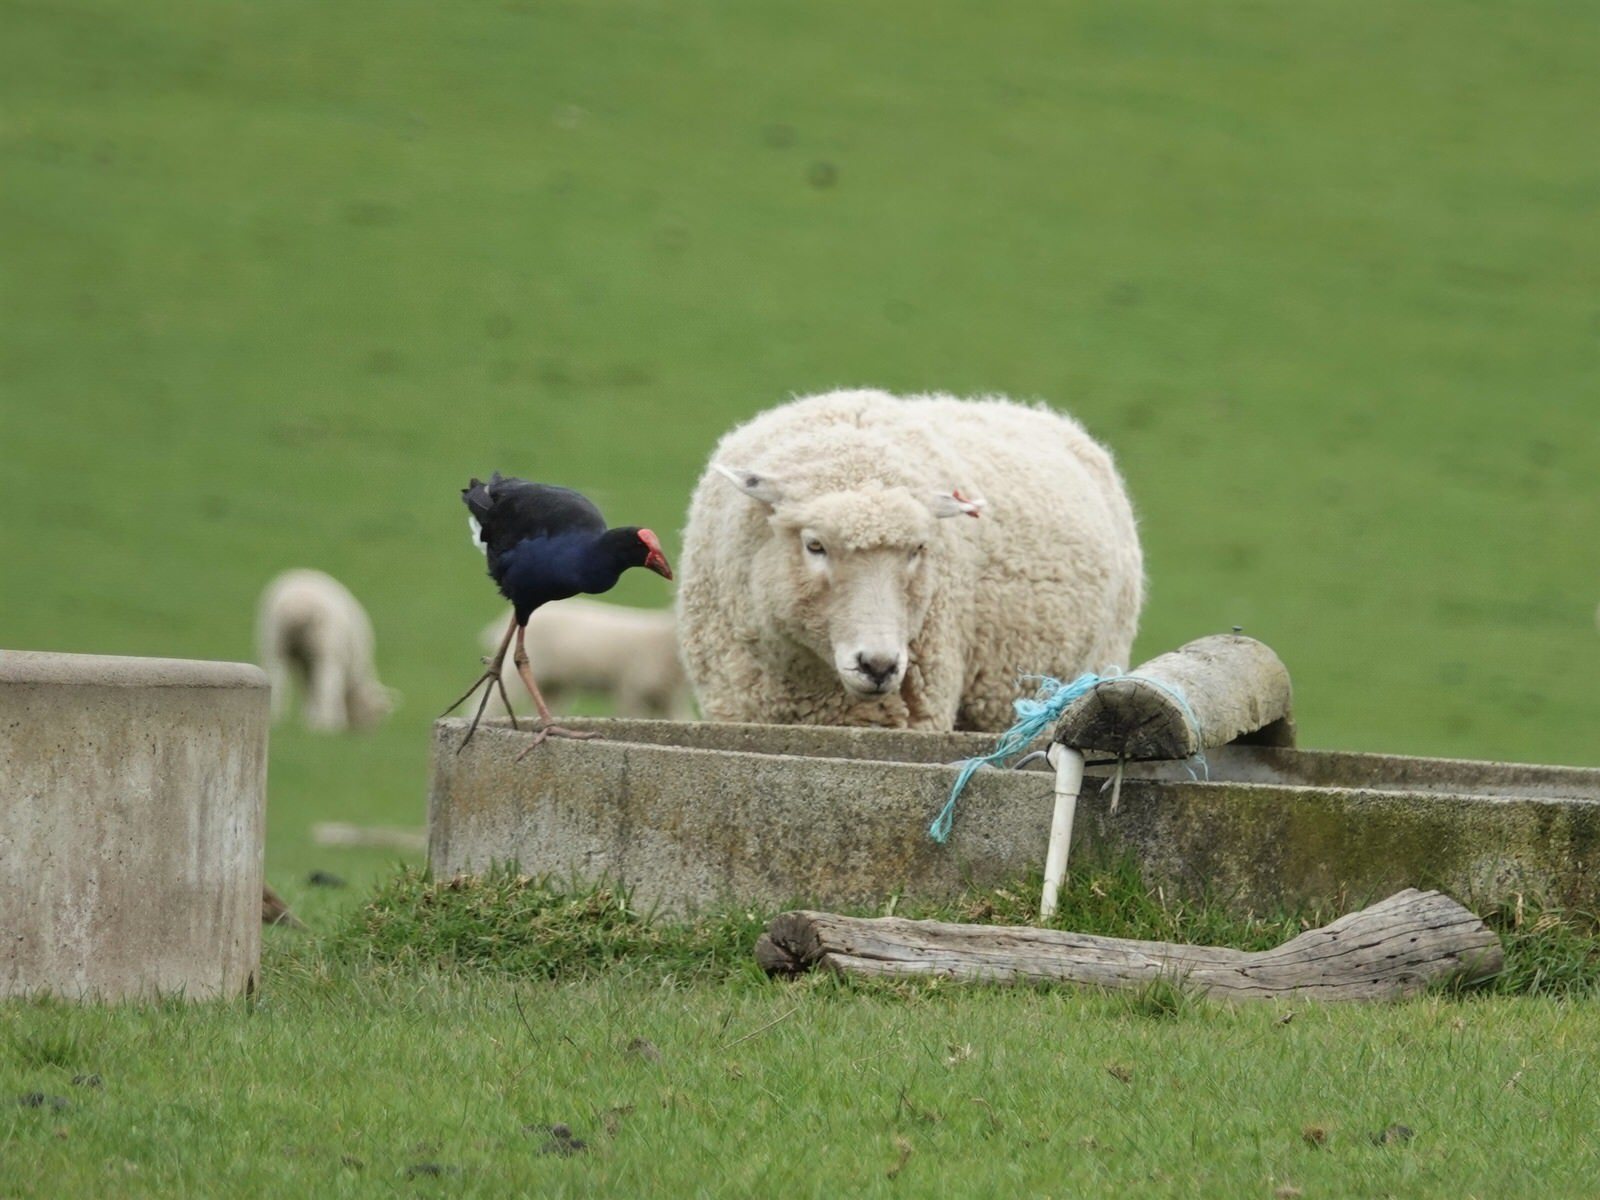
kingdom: Animalia
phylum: Chordata
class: Aves
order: Gruiformes
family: Rallidae
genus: Porphyrio
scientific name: Porphyrio melanotus
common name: Australasian swamphen
